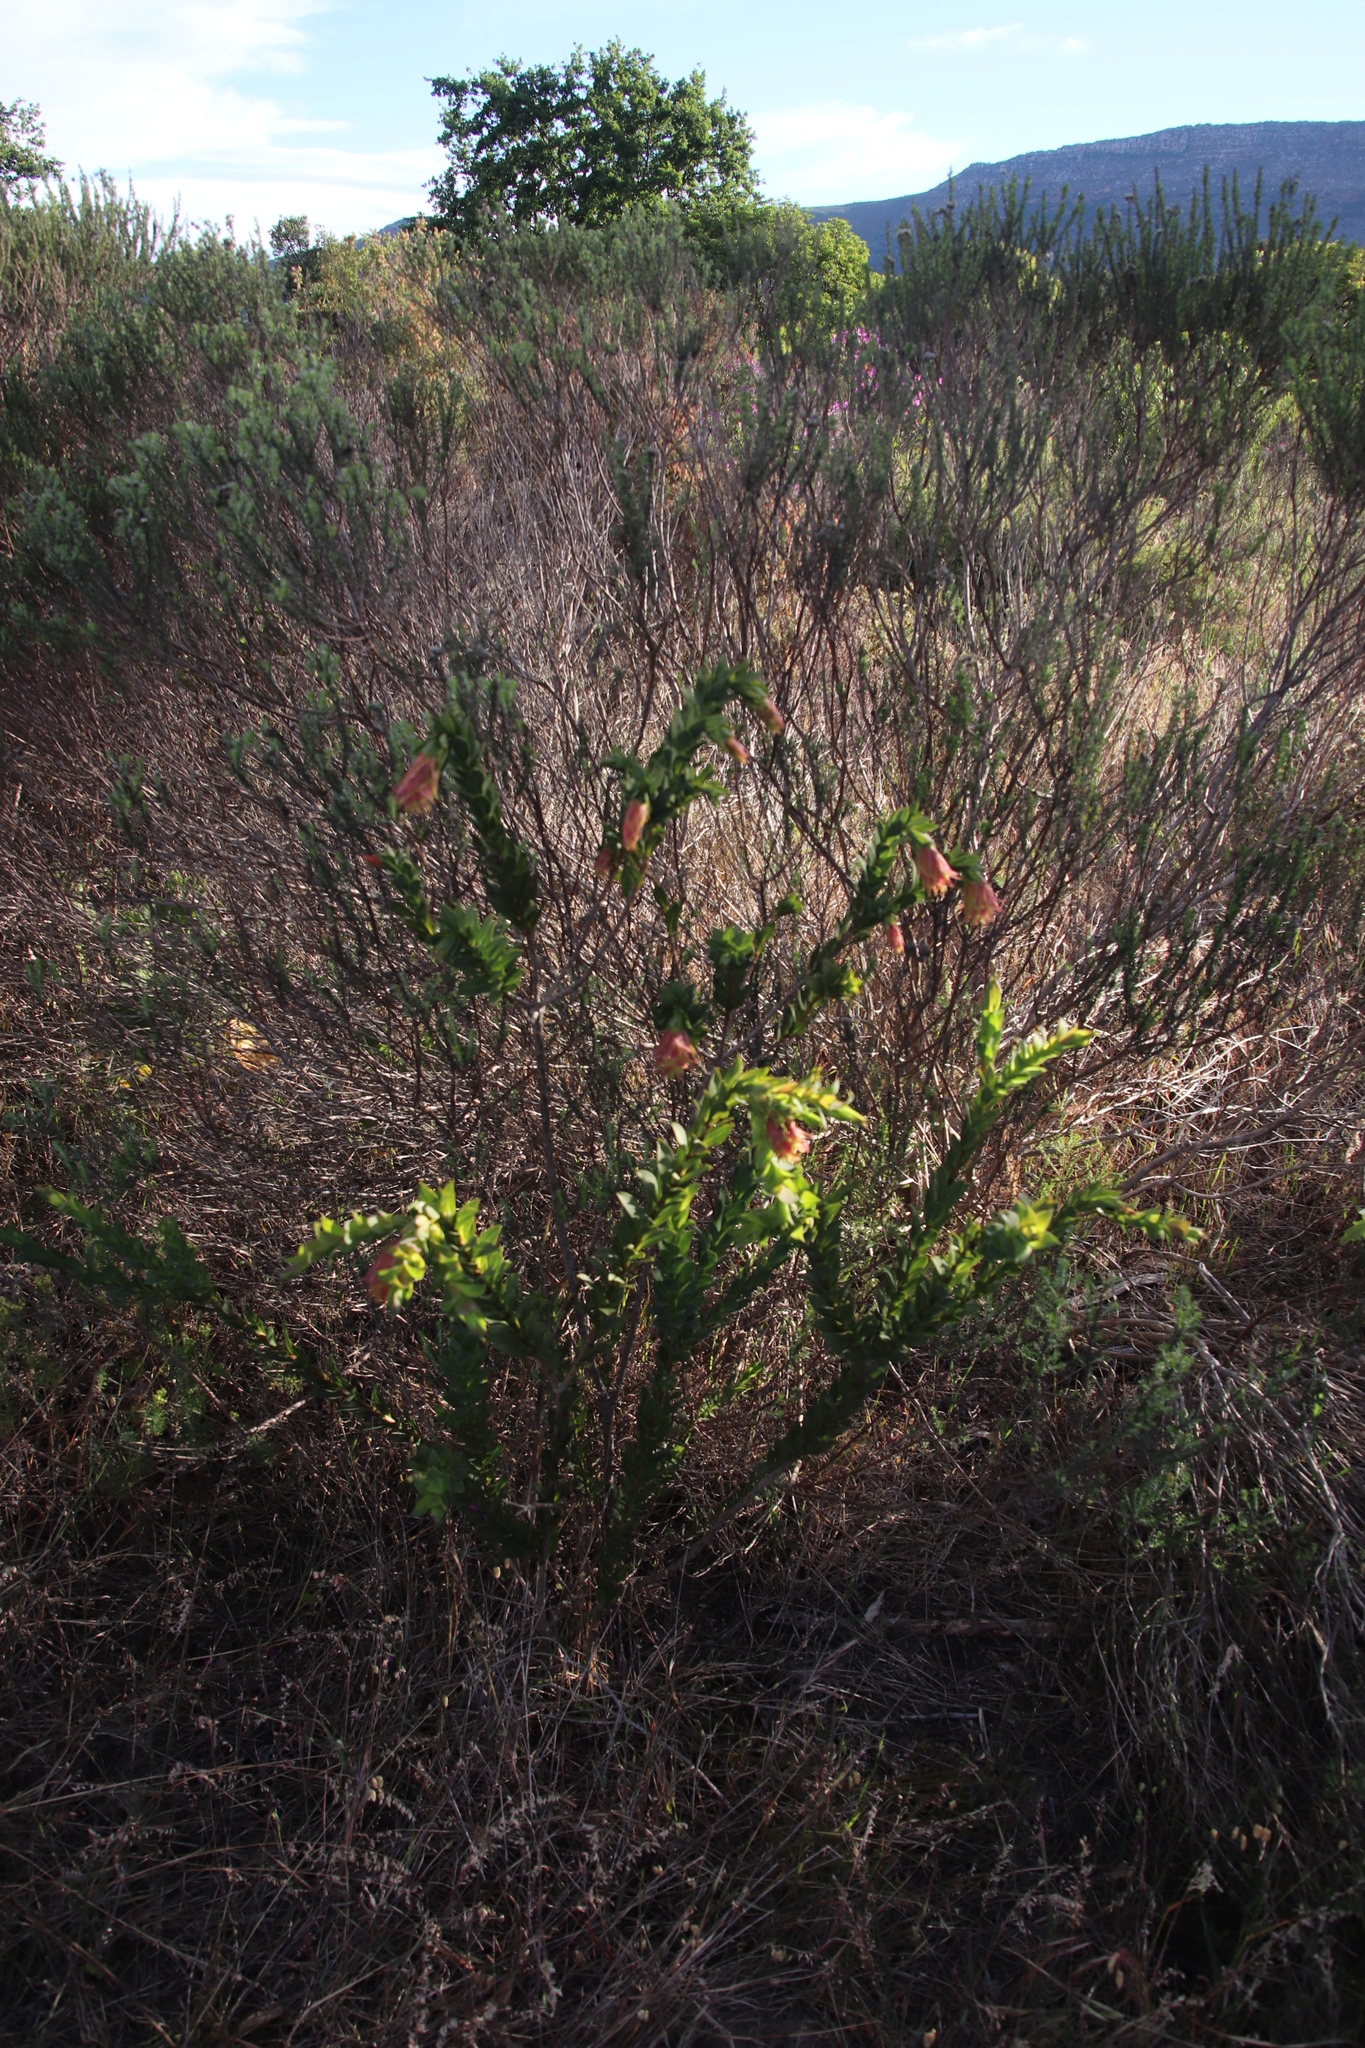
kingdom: Plantae
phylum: Tracheophyta
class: Magnoliopsida
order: Fabales
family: Fabaceae
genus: Liparia
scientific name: Liparia splendens
